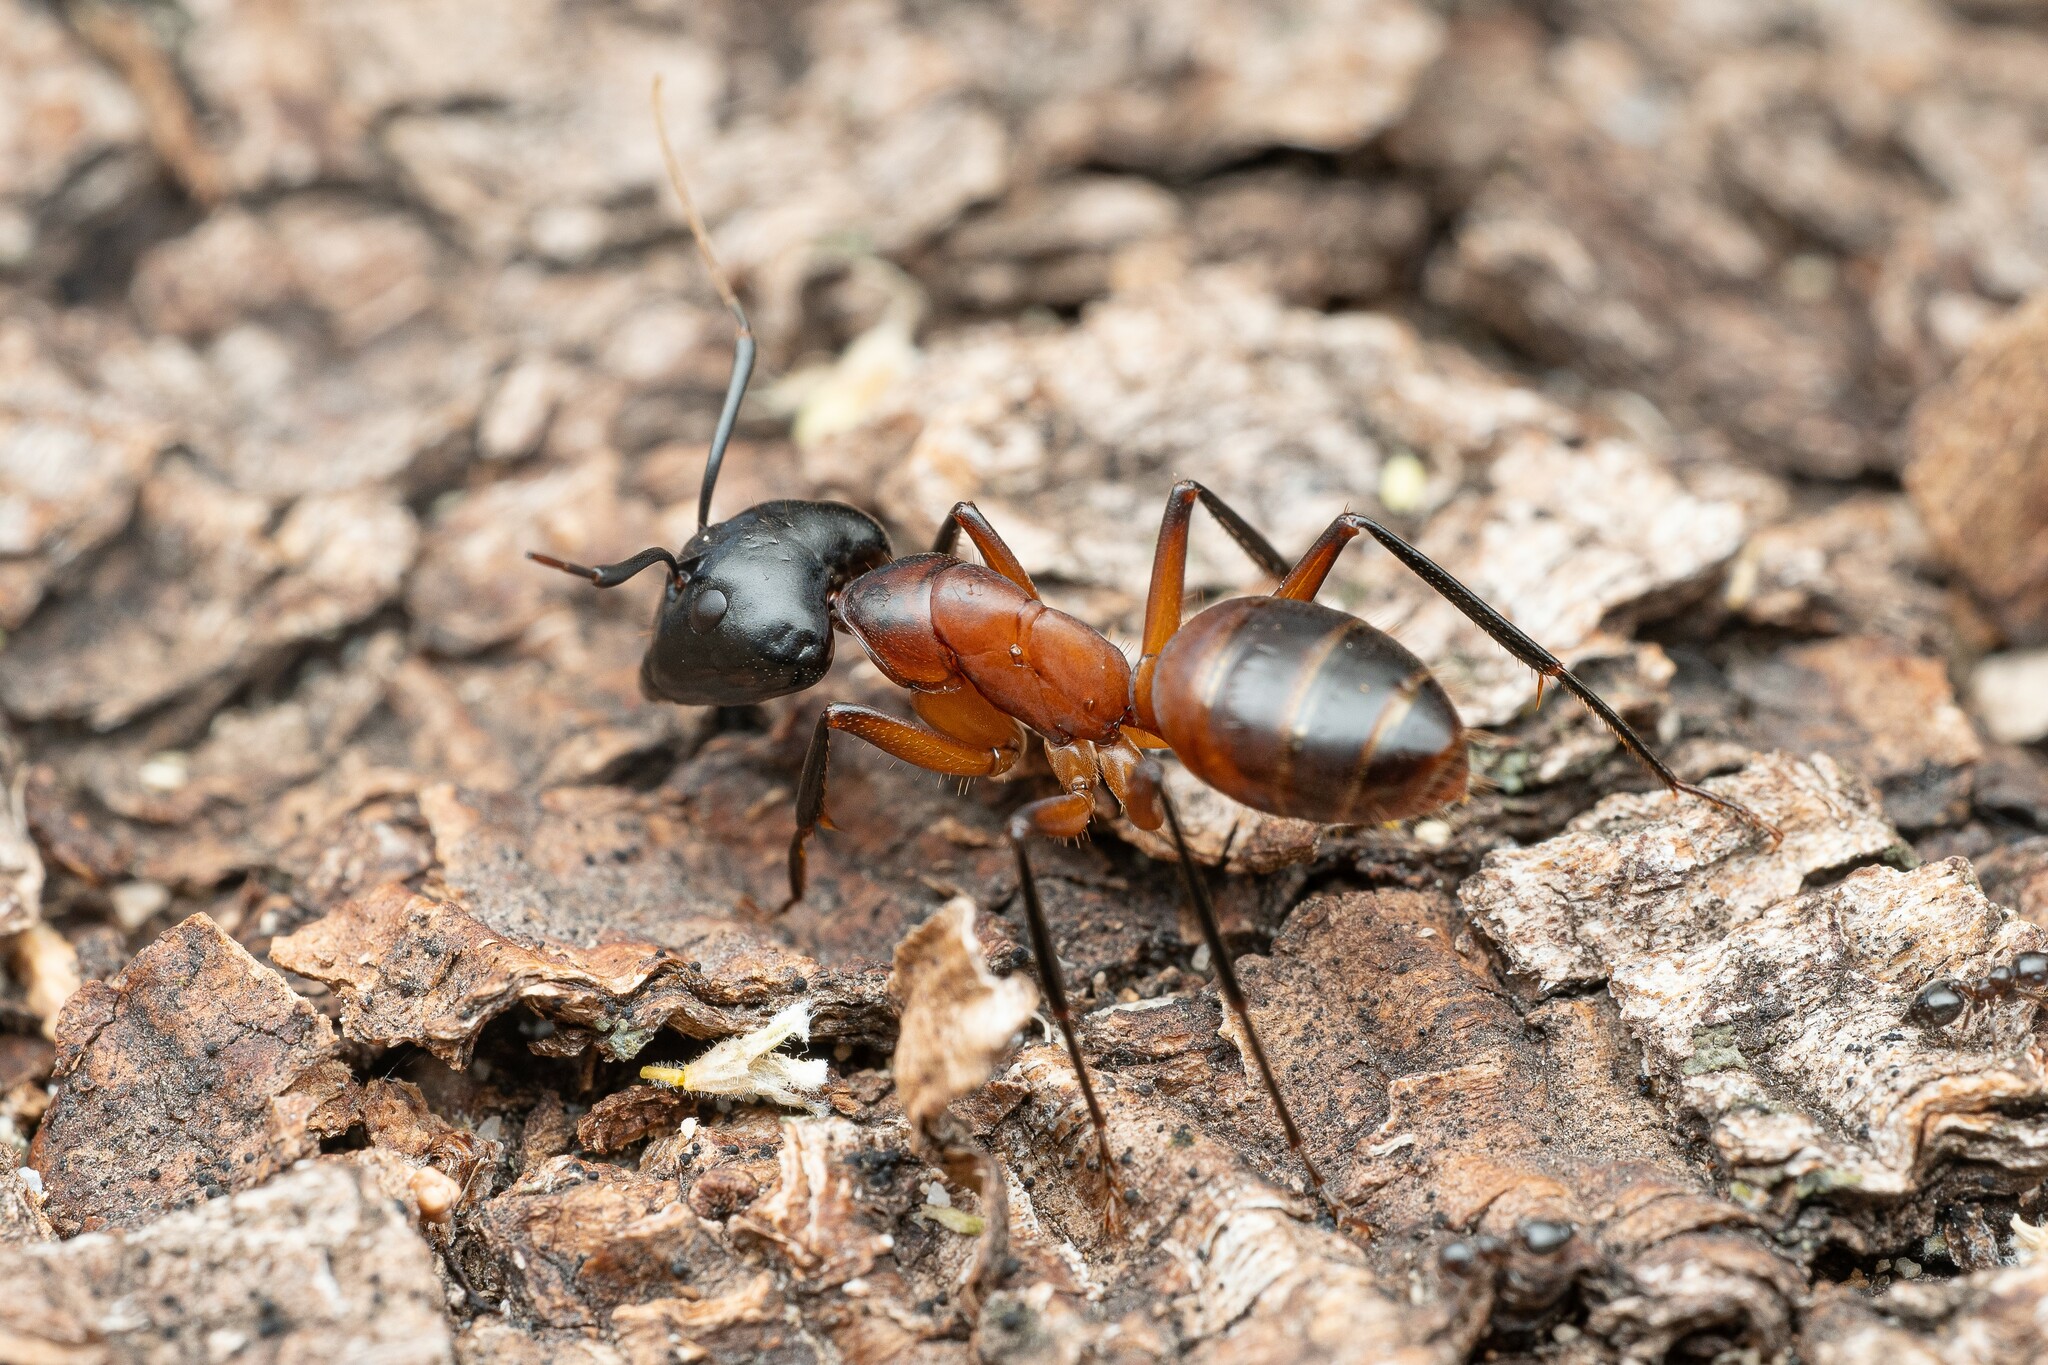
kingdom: Animalia
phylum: Arthropoda
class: Insecta
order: Hymenoptera
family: Formicidae
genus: Camponotus
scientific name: Camponotus ocreatus
